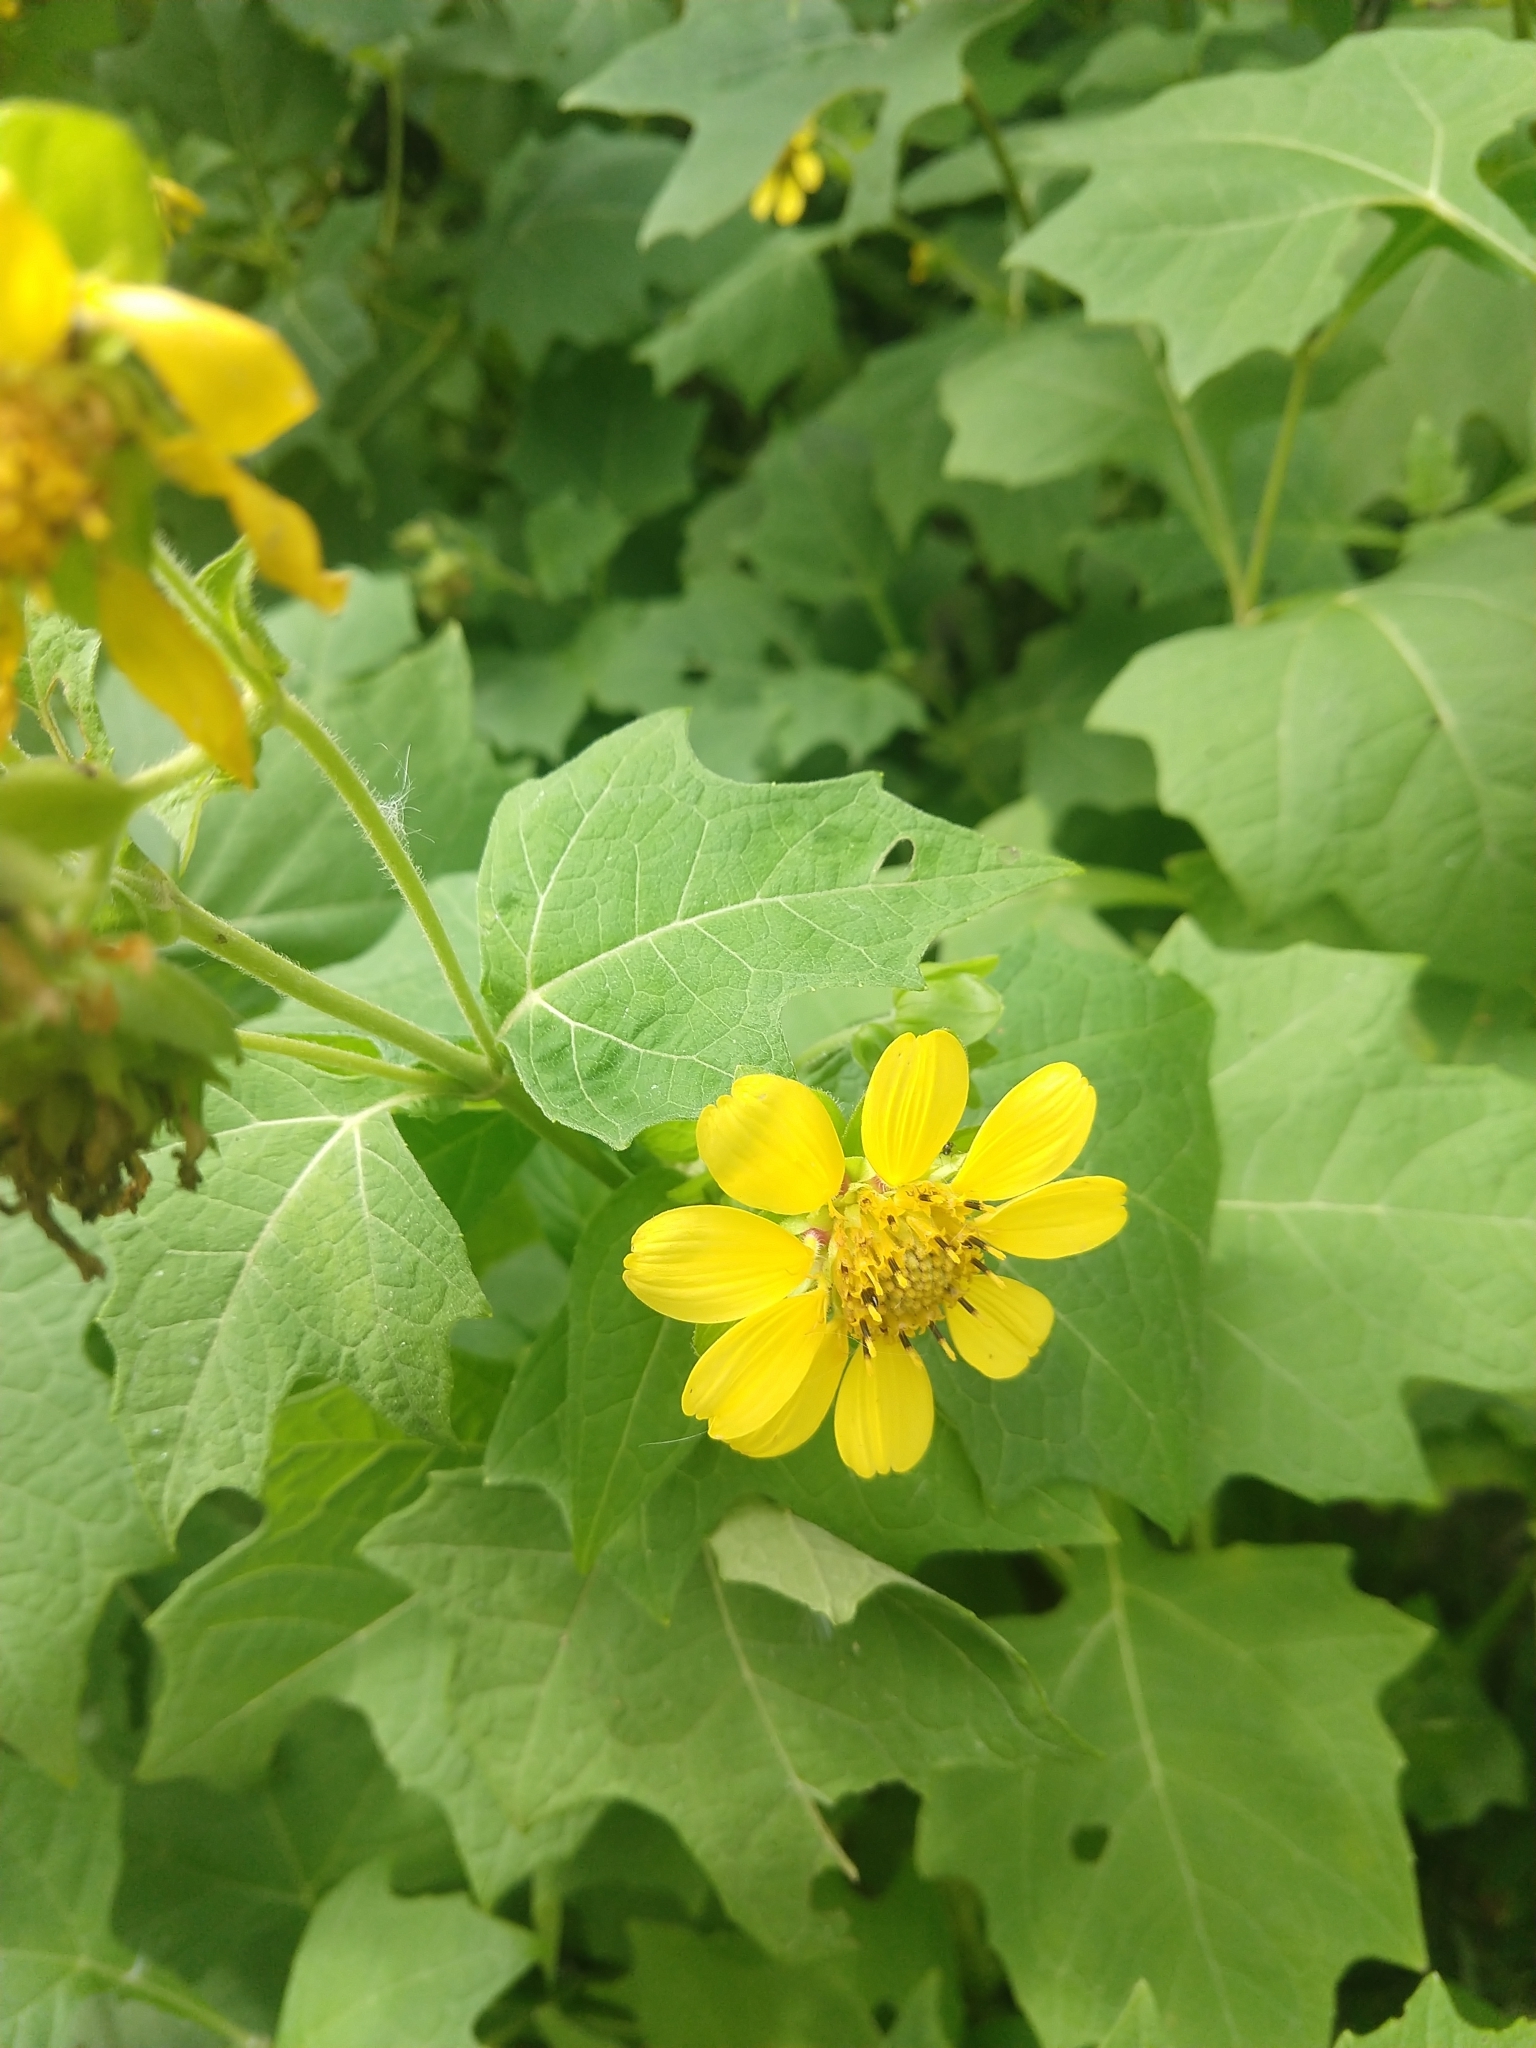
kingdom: Plantae
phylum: Tracheophyta
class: Magnoliopsida
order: Asterales
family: Asteraceae
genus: Smallanthus
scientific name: Smallanthus uvedalia
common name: Bear's-foot
